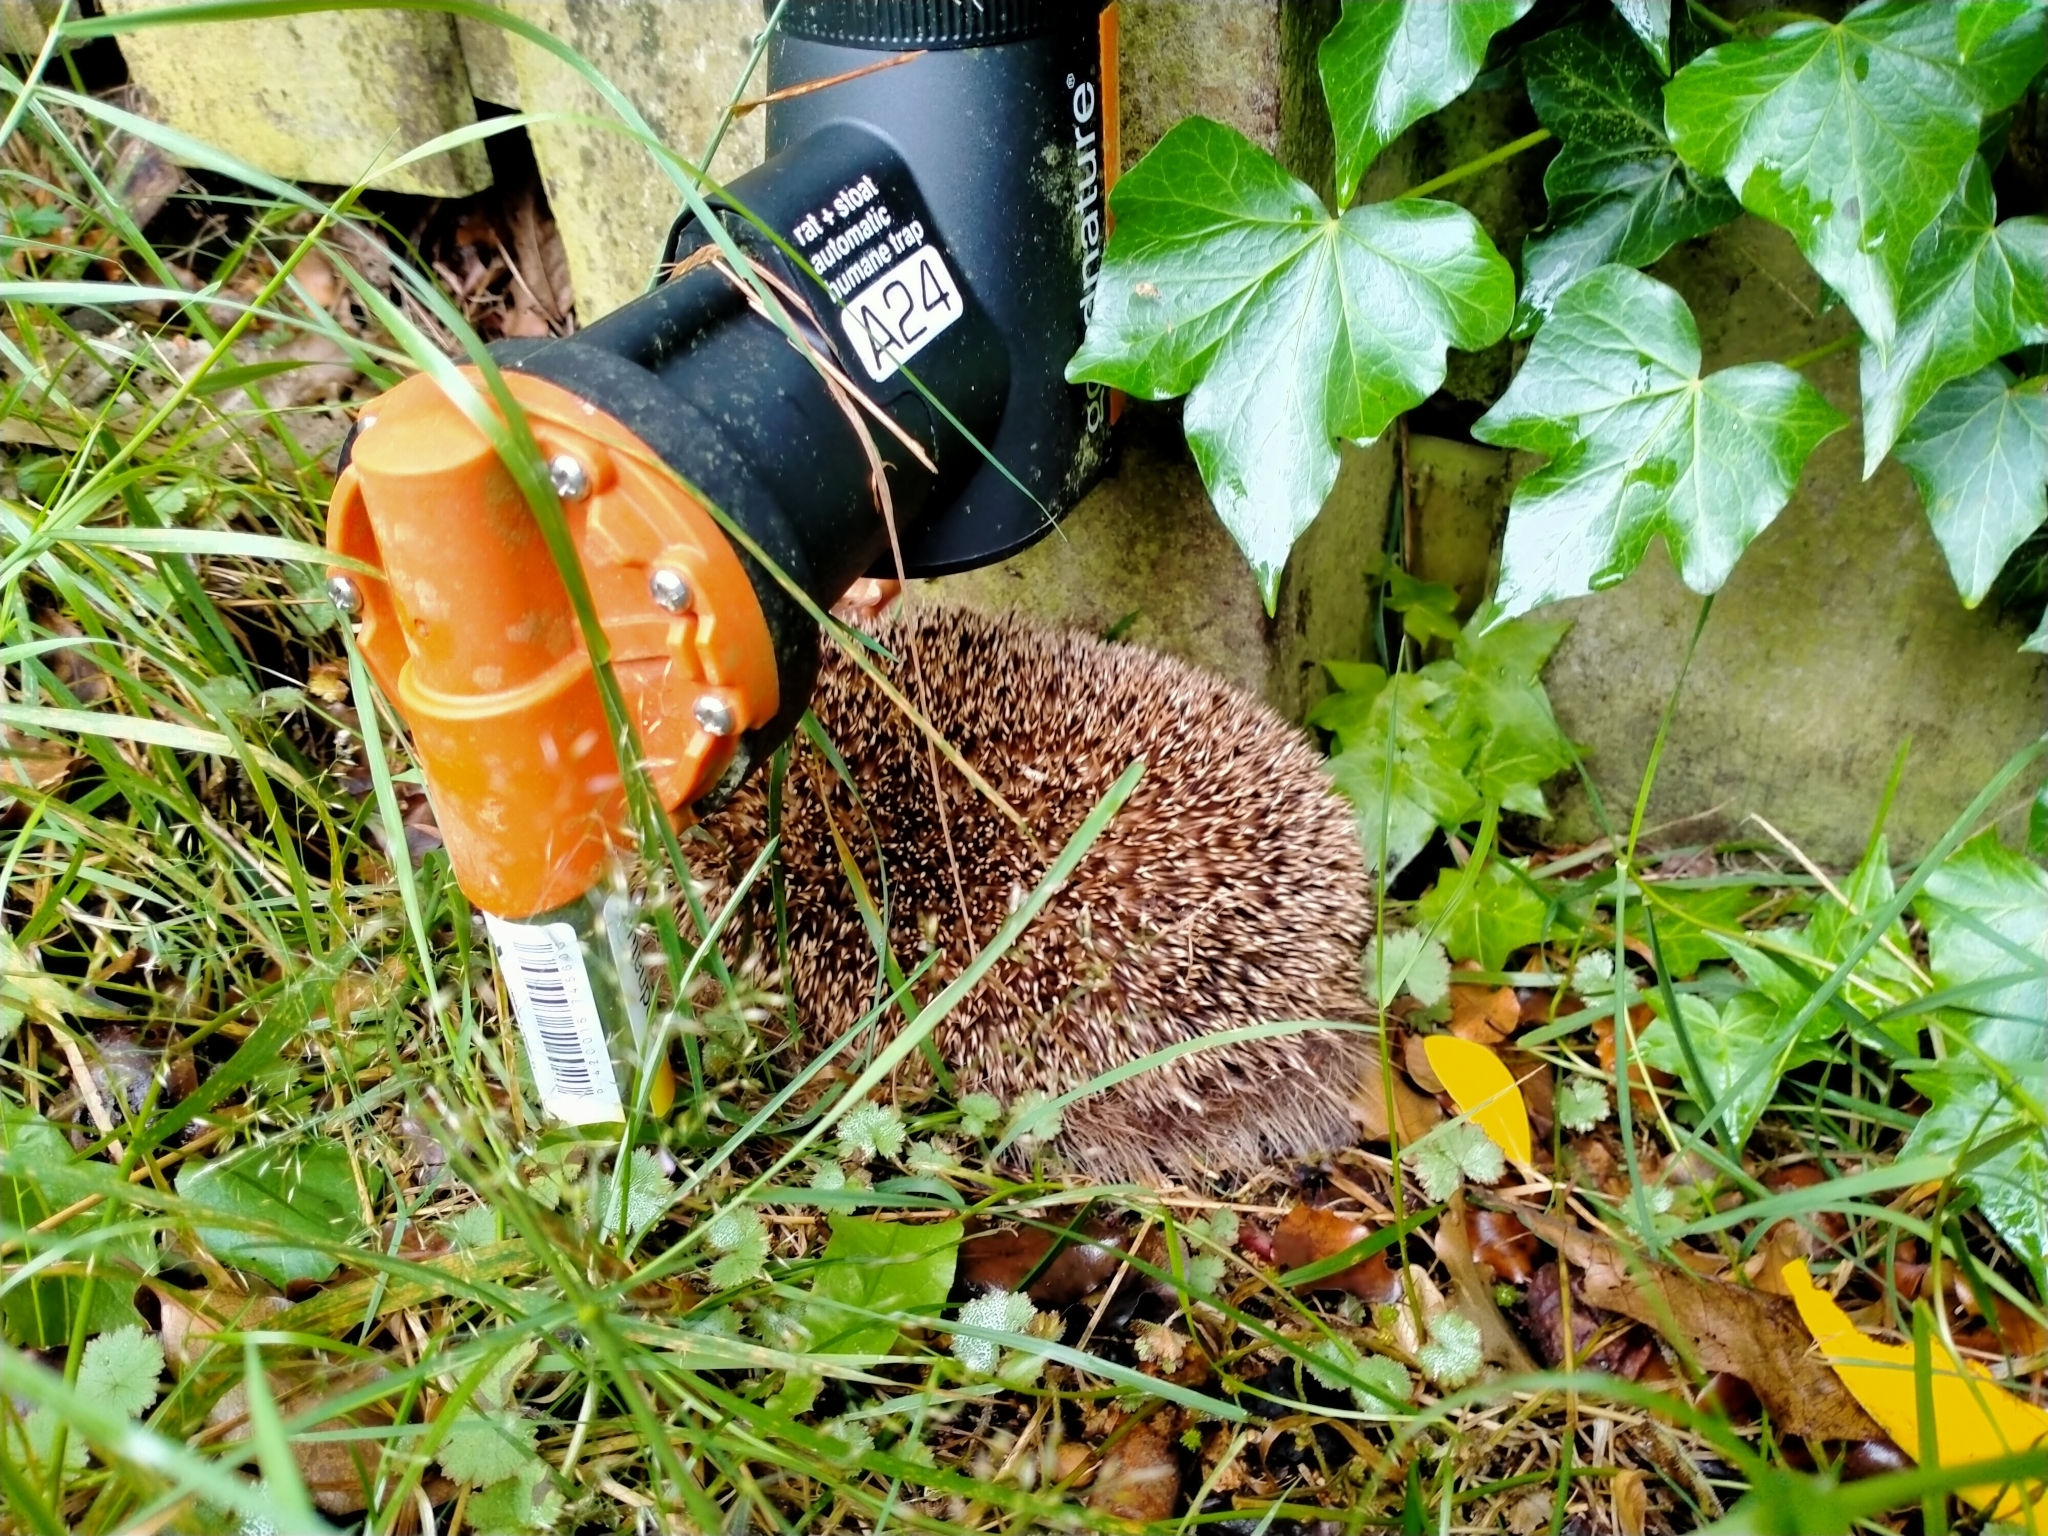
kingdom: Animalia
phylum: Chordata
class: Mammalia
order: Erinaceomorpha
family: Erinaceidae
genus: Erinaceus
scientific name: Erinaceus europaeus
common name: West european hedgehog
